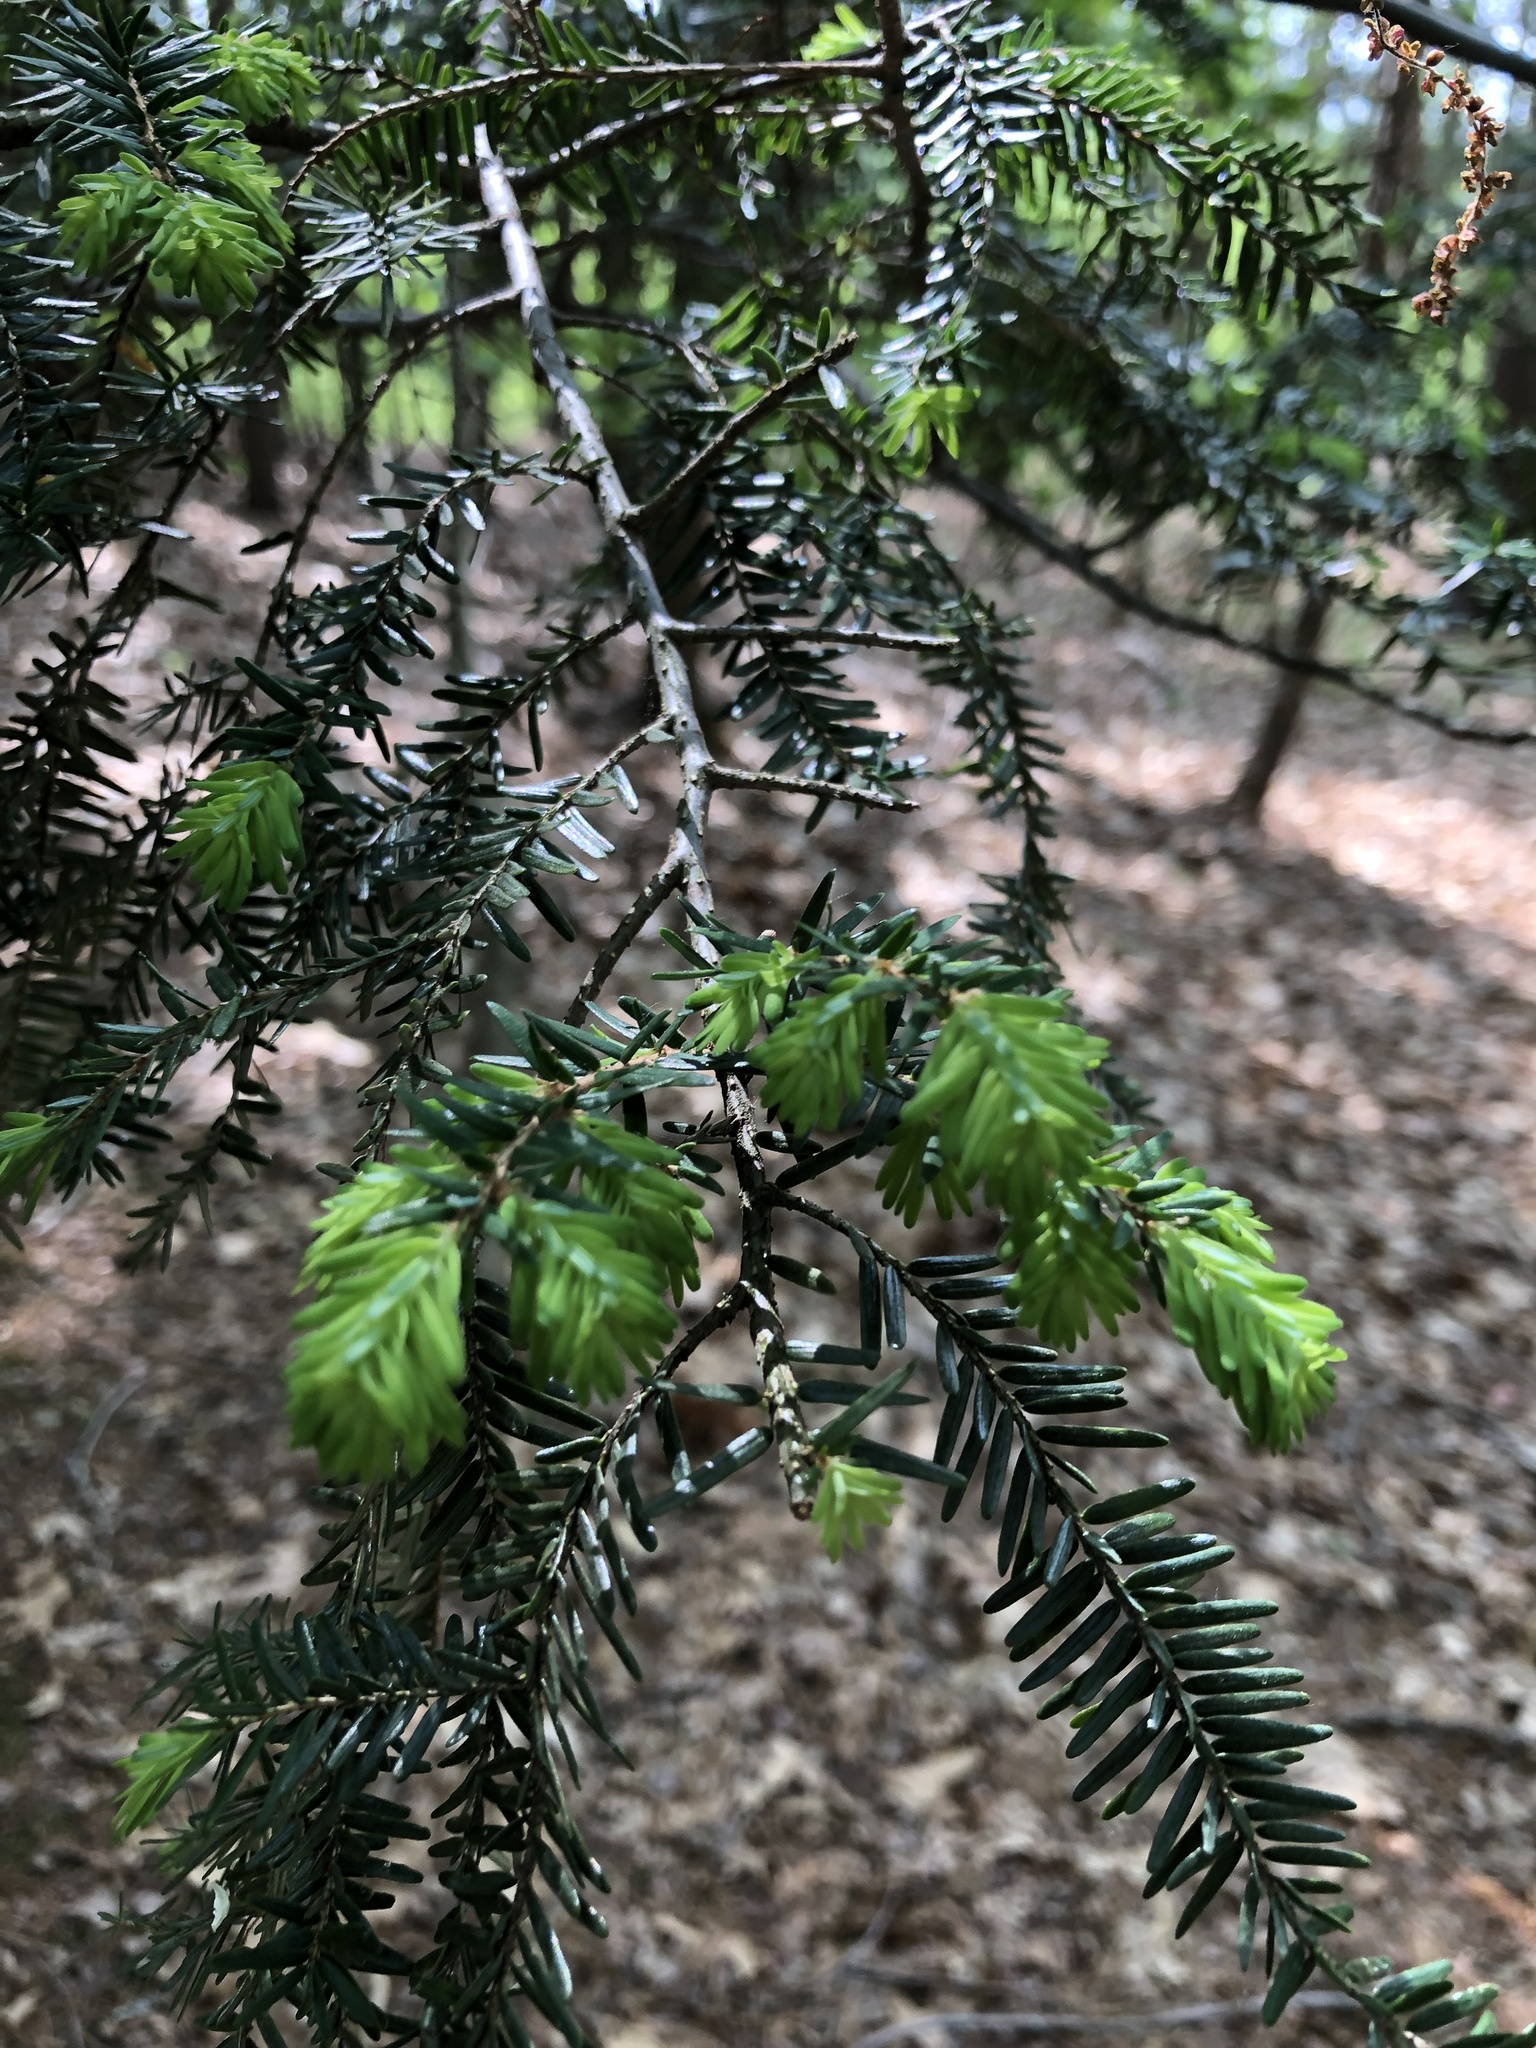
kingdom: Plantae
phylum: Tracheophyta
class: Pinopsida
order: Pinales
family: Pinaceae
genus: Tsuga
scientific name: Tsuga canadensis
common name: Eastern hemlock
